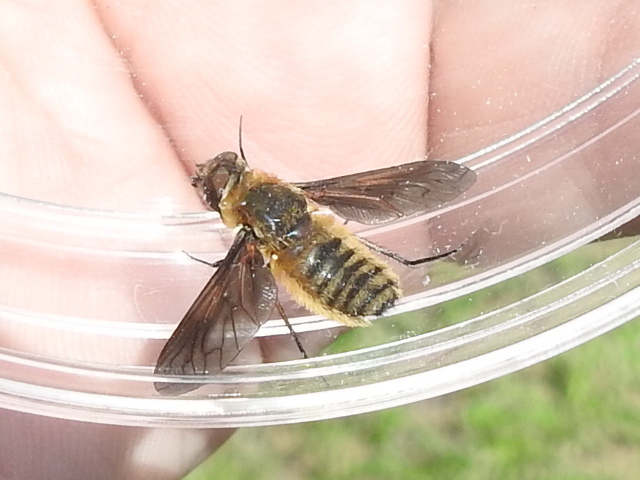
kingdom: Animalia
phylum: Arthropoda
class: Insecta
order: Diptera
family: Bombyliidae
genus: Poecilanthrax
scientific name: Poecilanthrax lucifer
